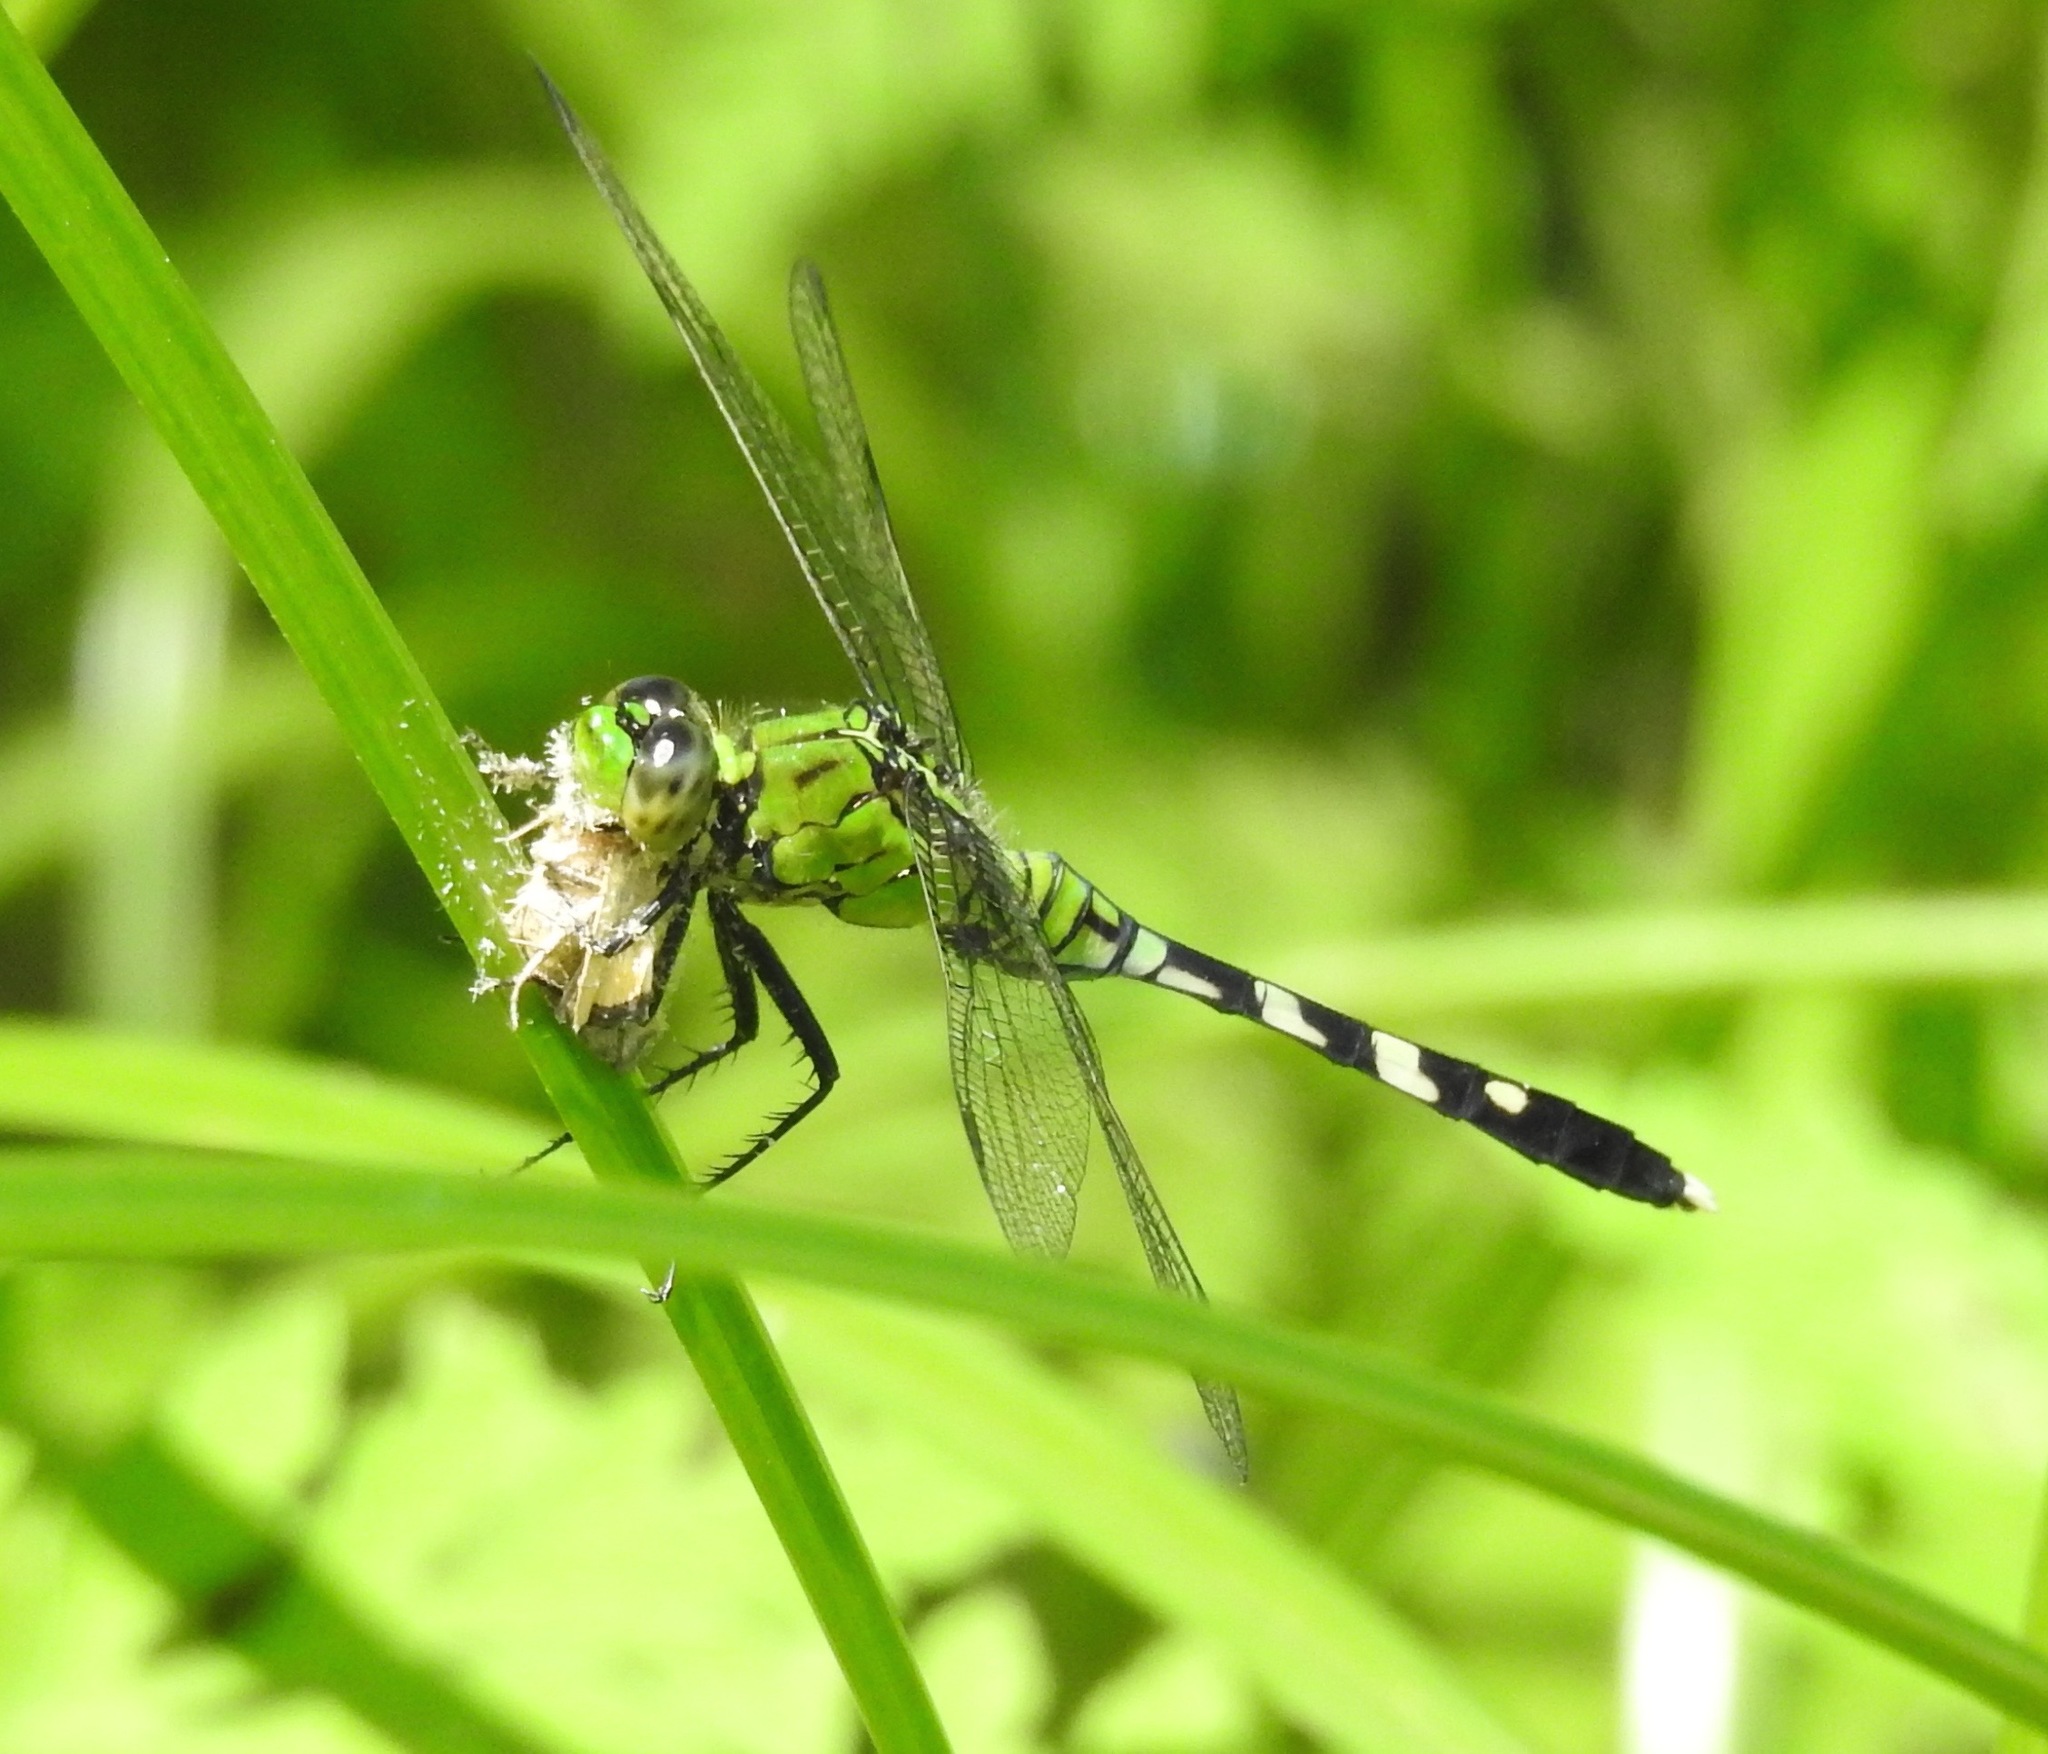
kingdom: Animalia
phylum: Arthropoda
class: Insecta
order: Odonata
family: Libellulidae
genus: Erythemis
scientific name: Erythemis simplicicollis
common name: Eastern pondhawk
